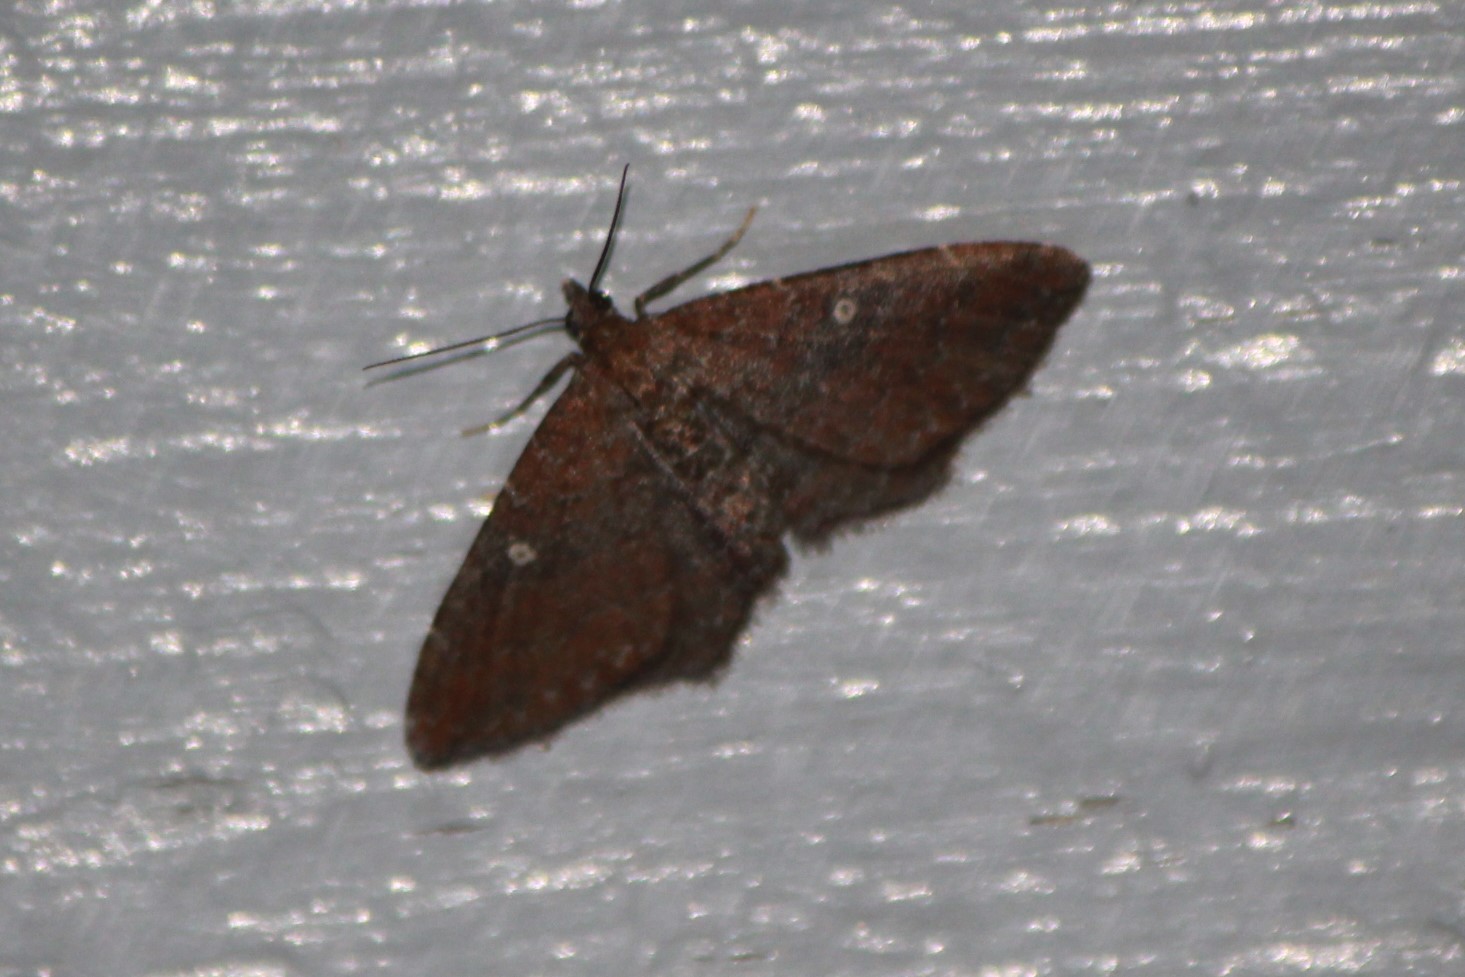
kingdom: Animalia
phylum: Arthropoda
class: Insecta
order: Lepidoptera
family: Geometridae
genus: Orthonama
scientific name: Orthonama obstipata
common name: The gem
